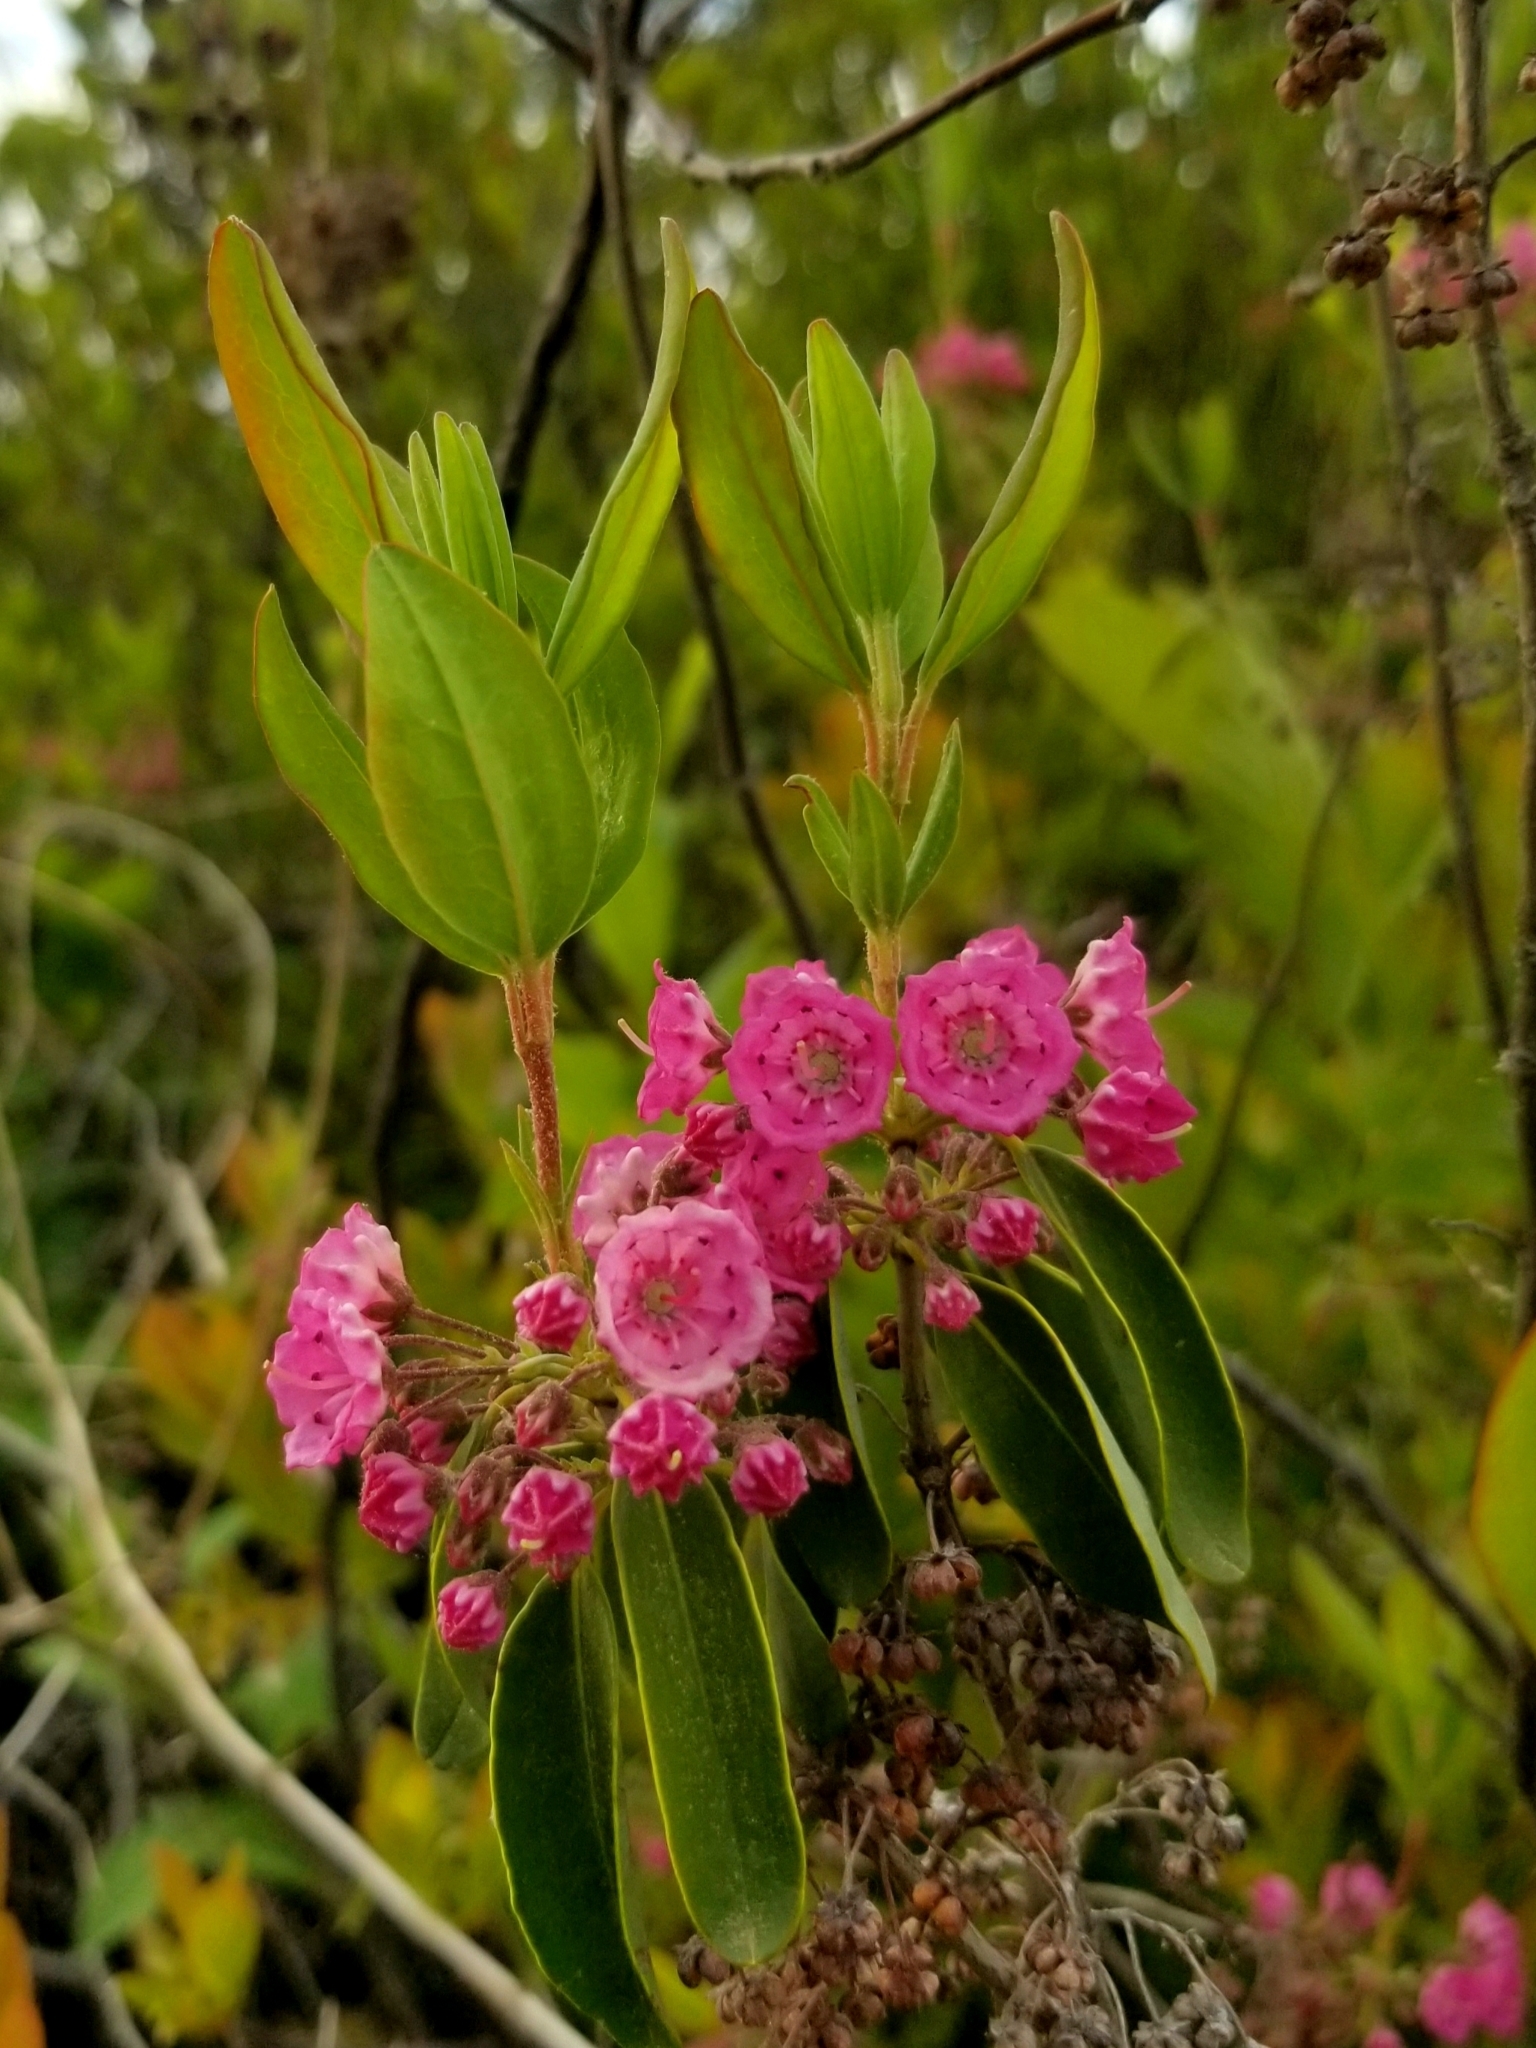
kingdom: Plantae
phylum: Tracheophyta
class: Magnoliopsida
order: Ericales
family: Ericaceae
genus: Kalmia
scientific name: Kalmia angustifolia
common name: Sheep-laurel
